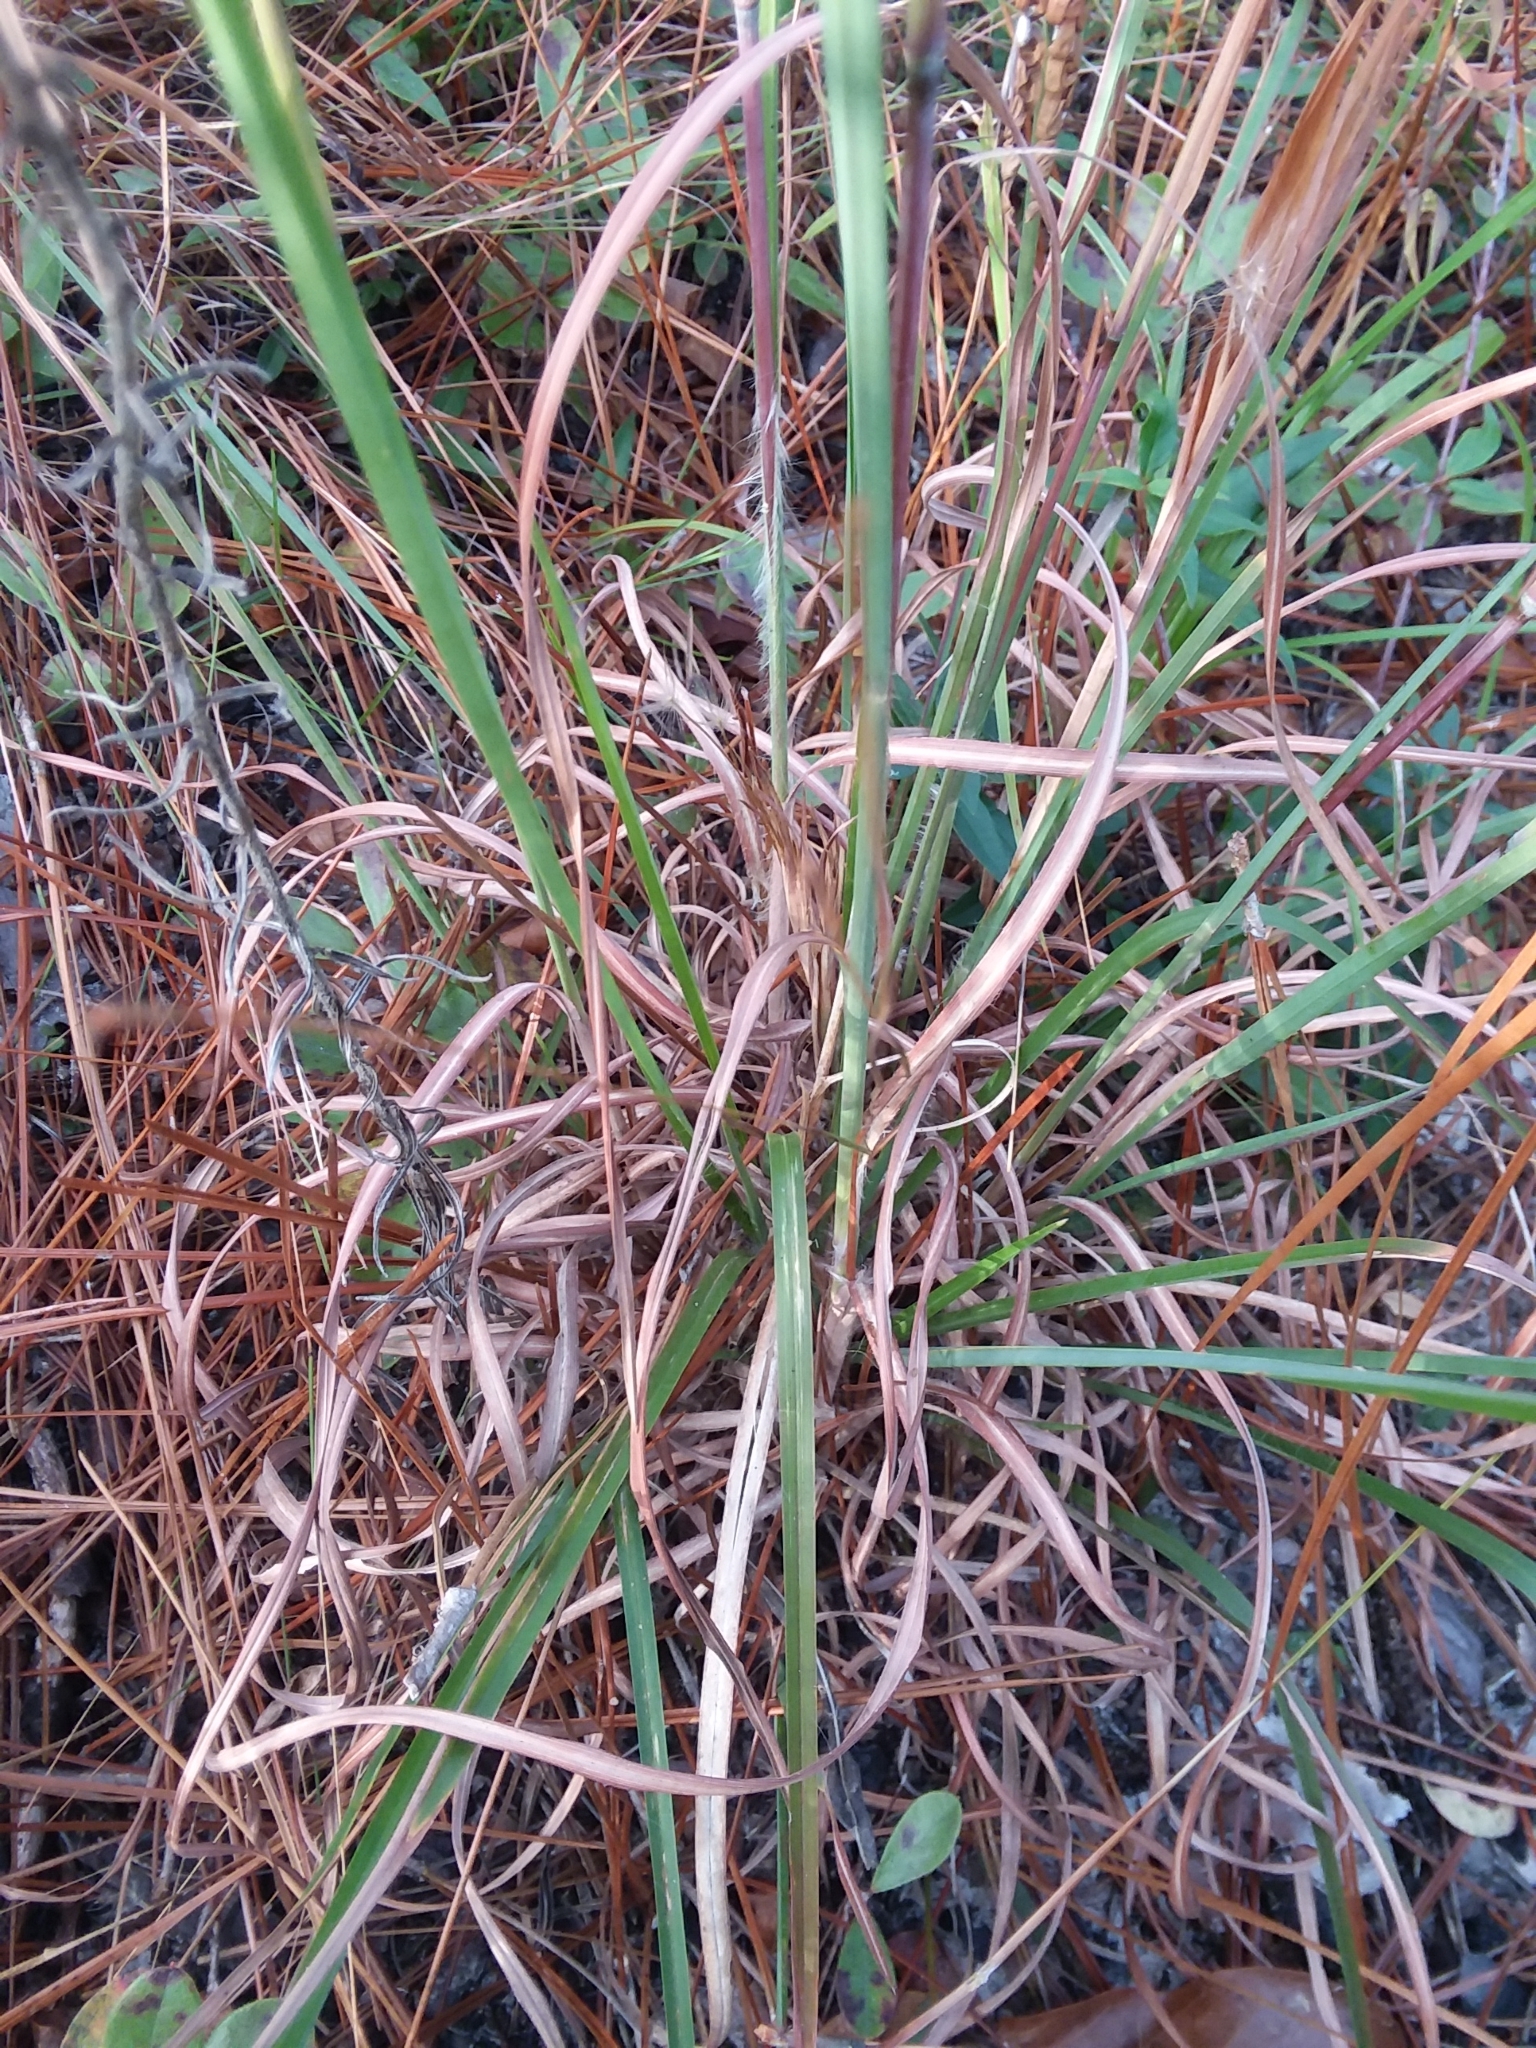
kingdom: Plantae
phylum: Tracheophyta
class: Liliopsida
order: Poales
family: Poaceae
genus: Andropogon
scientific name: Andropogon gyrans
